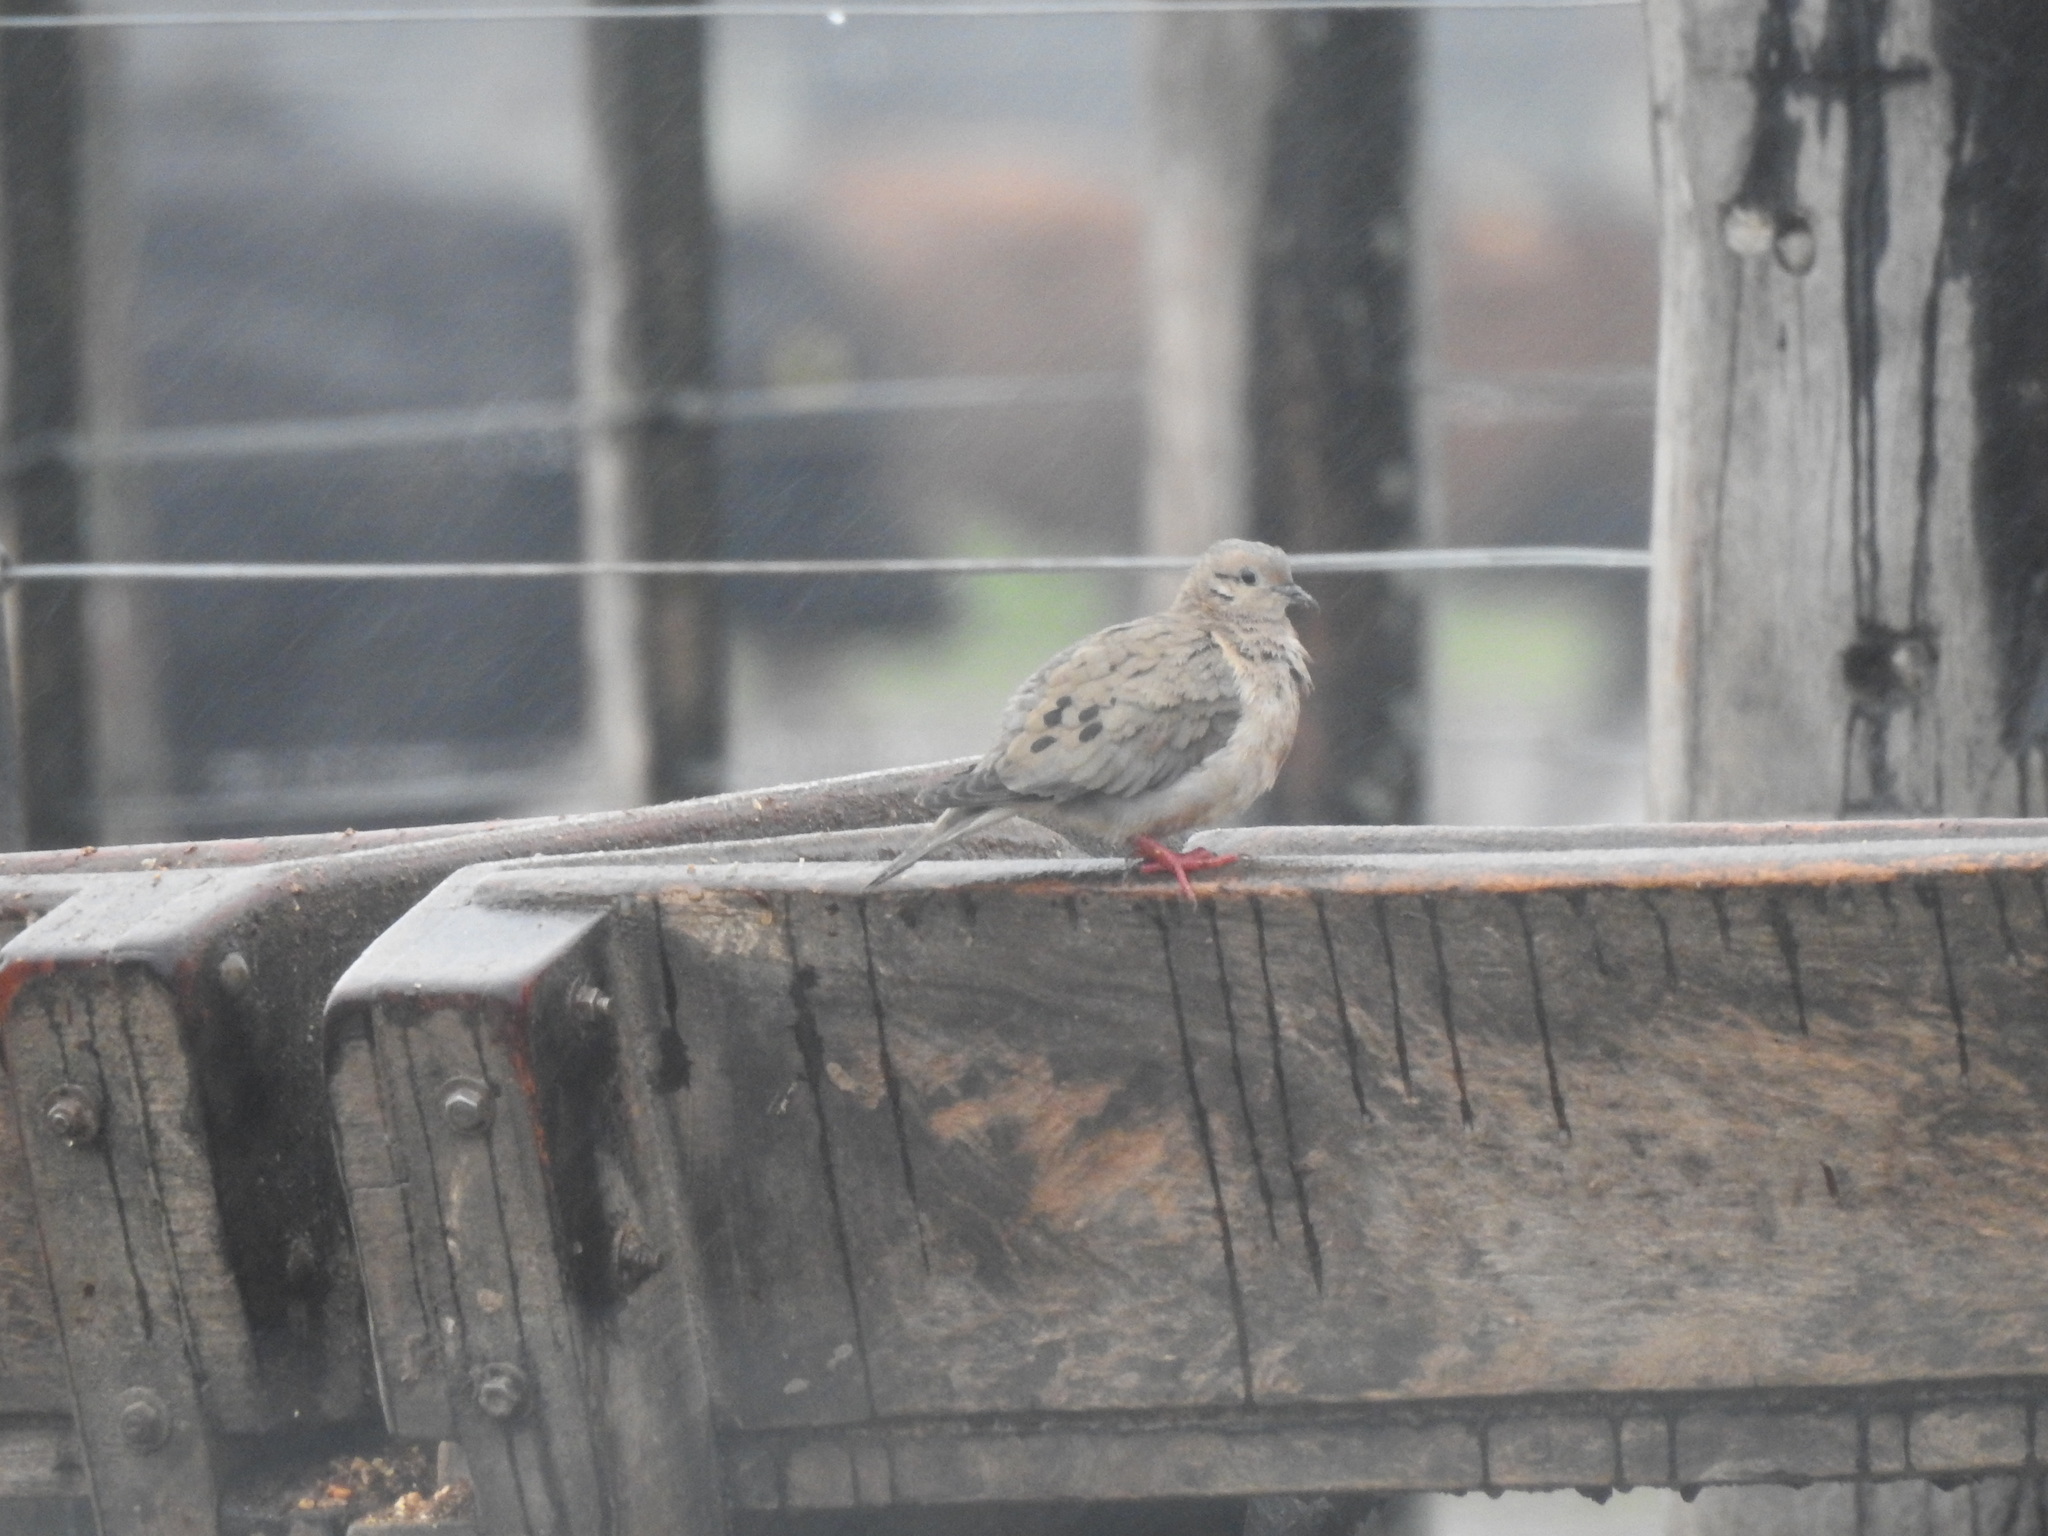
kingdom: Animalia
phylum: Chordata
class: Aves
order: Columbiformes
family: Columbidae
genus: Zenaida
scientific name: Zenaida auriculata
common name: Eared dove
